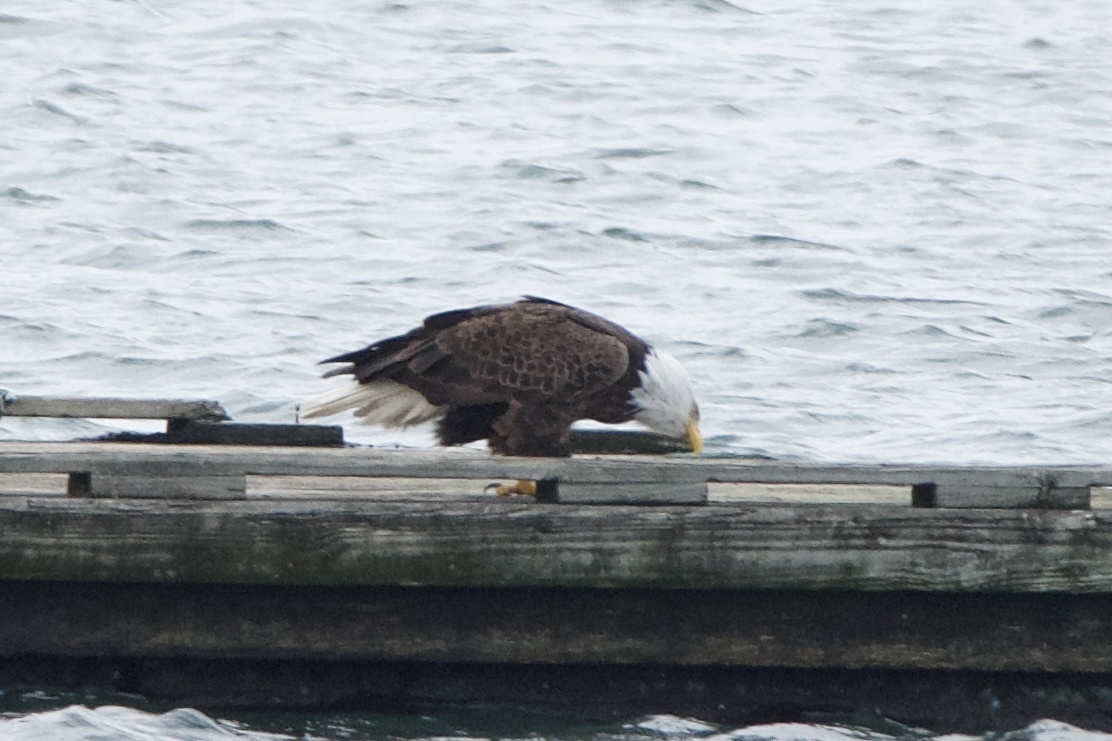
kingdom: Animalia
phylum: Chordata
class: Aves
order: Accipitriformes
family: Accipitridae
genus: Haliaeetus
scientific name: Haliaeetus leucocephalus
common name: Bald eagle
